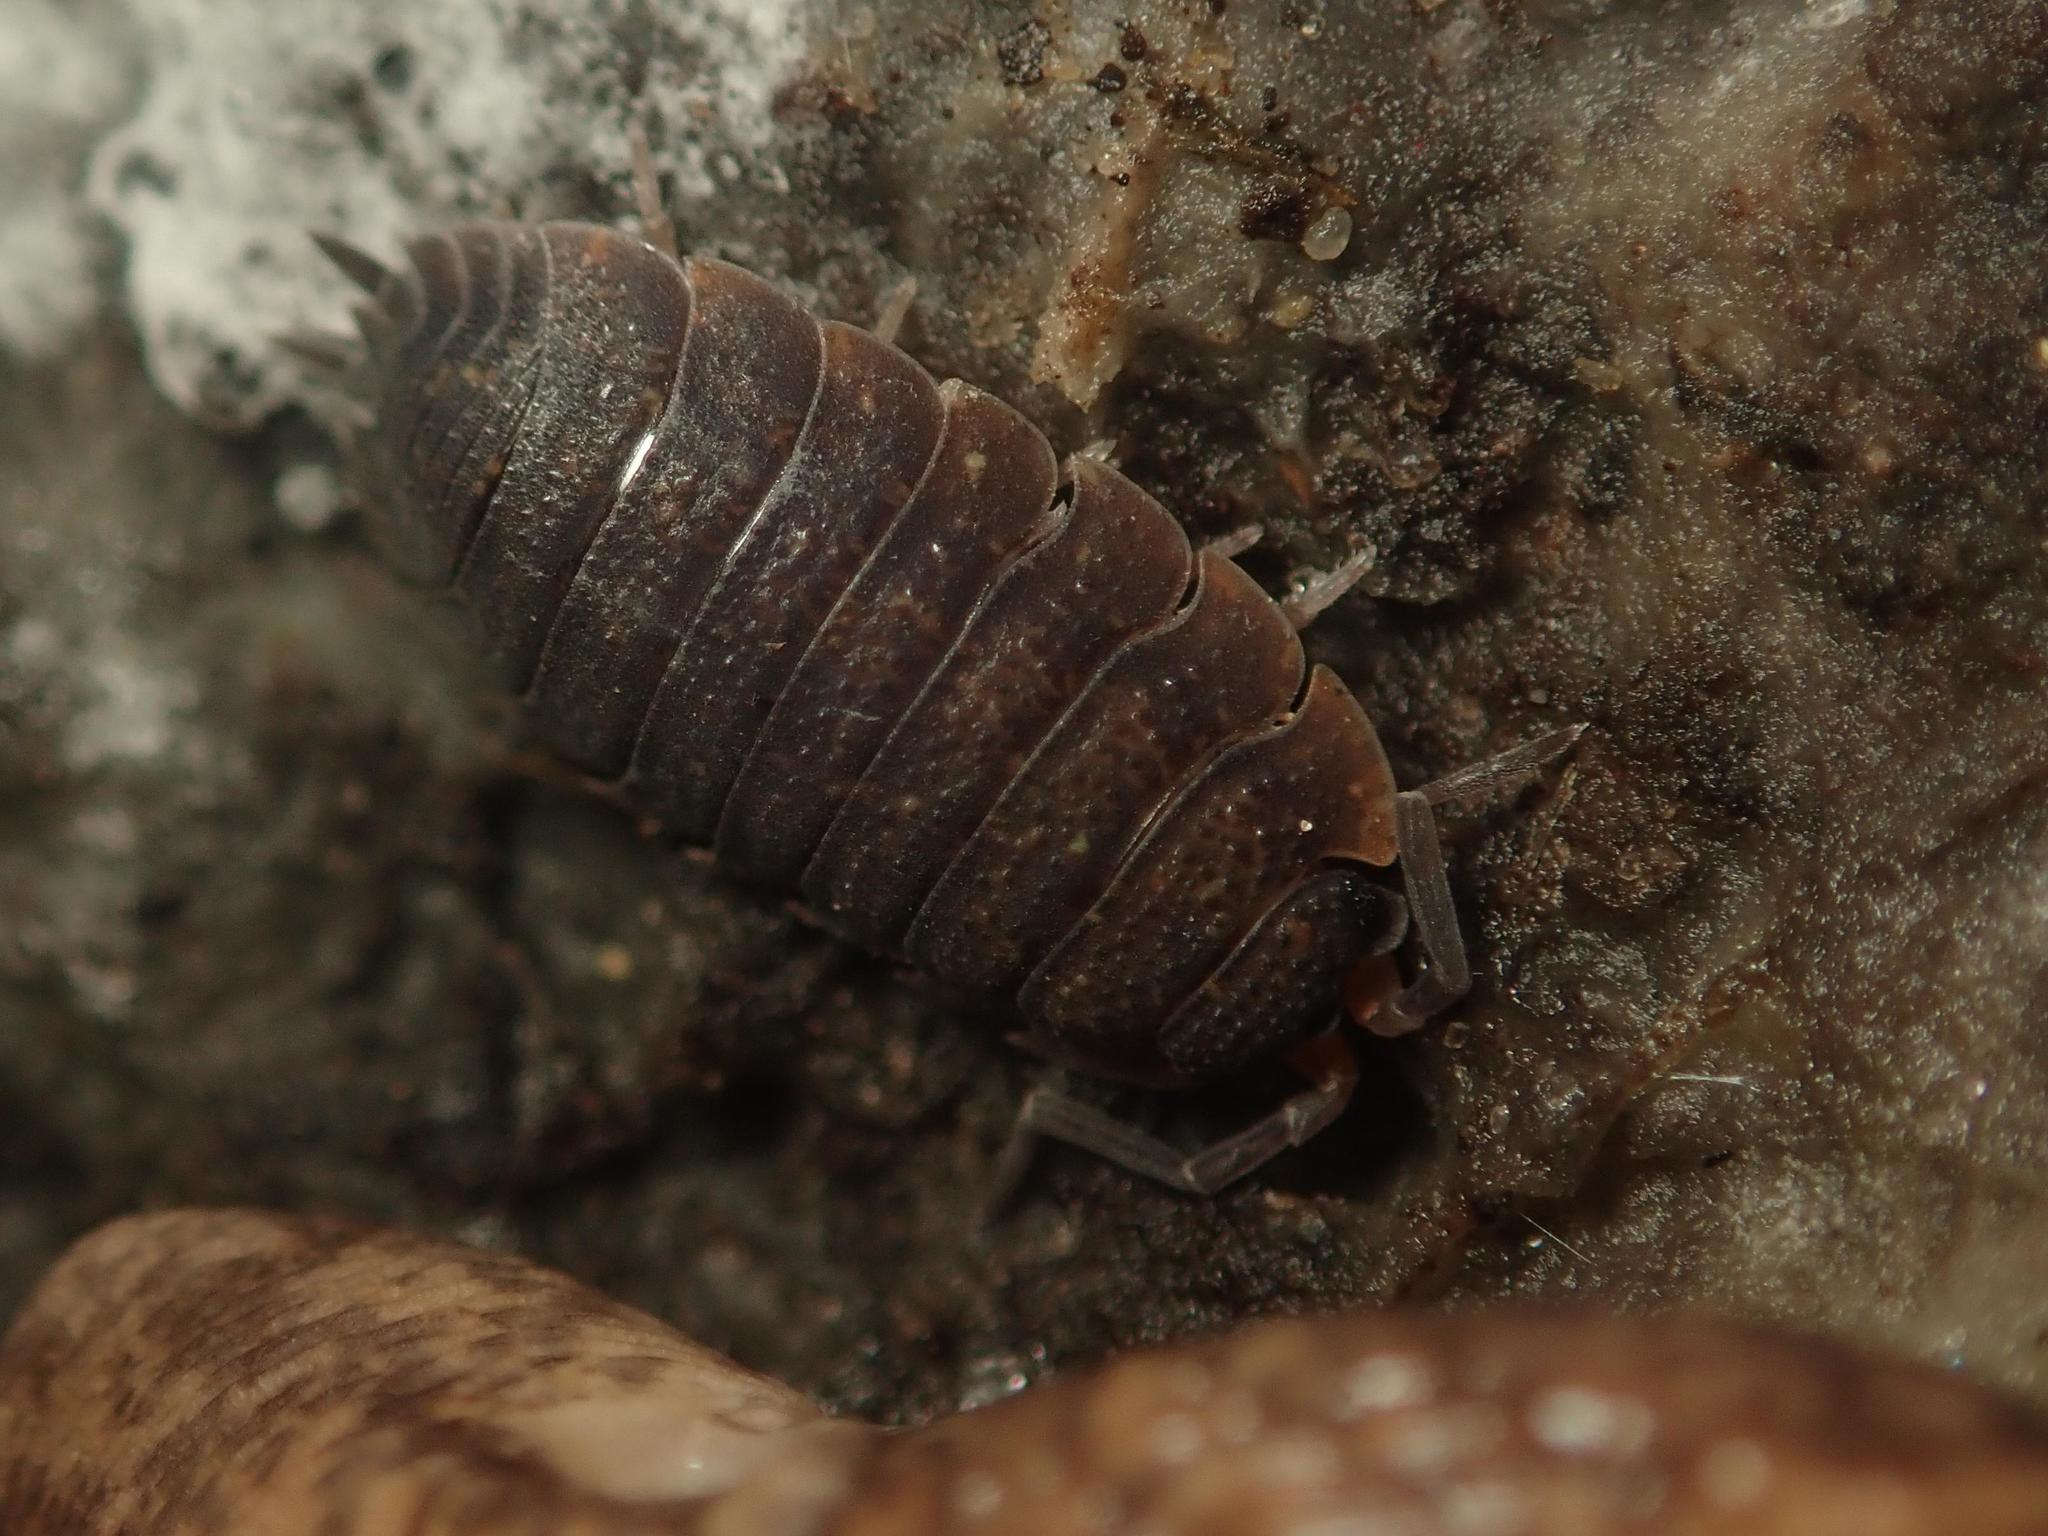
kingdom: Animalia
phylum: Arthropoda
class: Malacostraca
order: Isopoda
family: Porcellionidae
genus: Porcellio
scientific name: Porcellio scaber
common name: Common rough woodlouse
